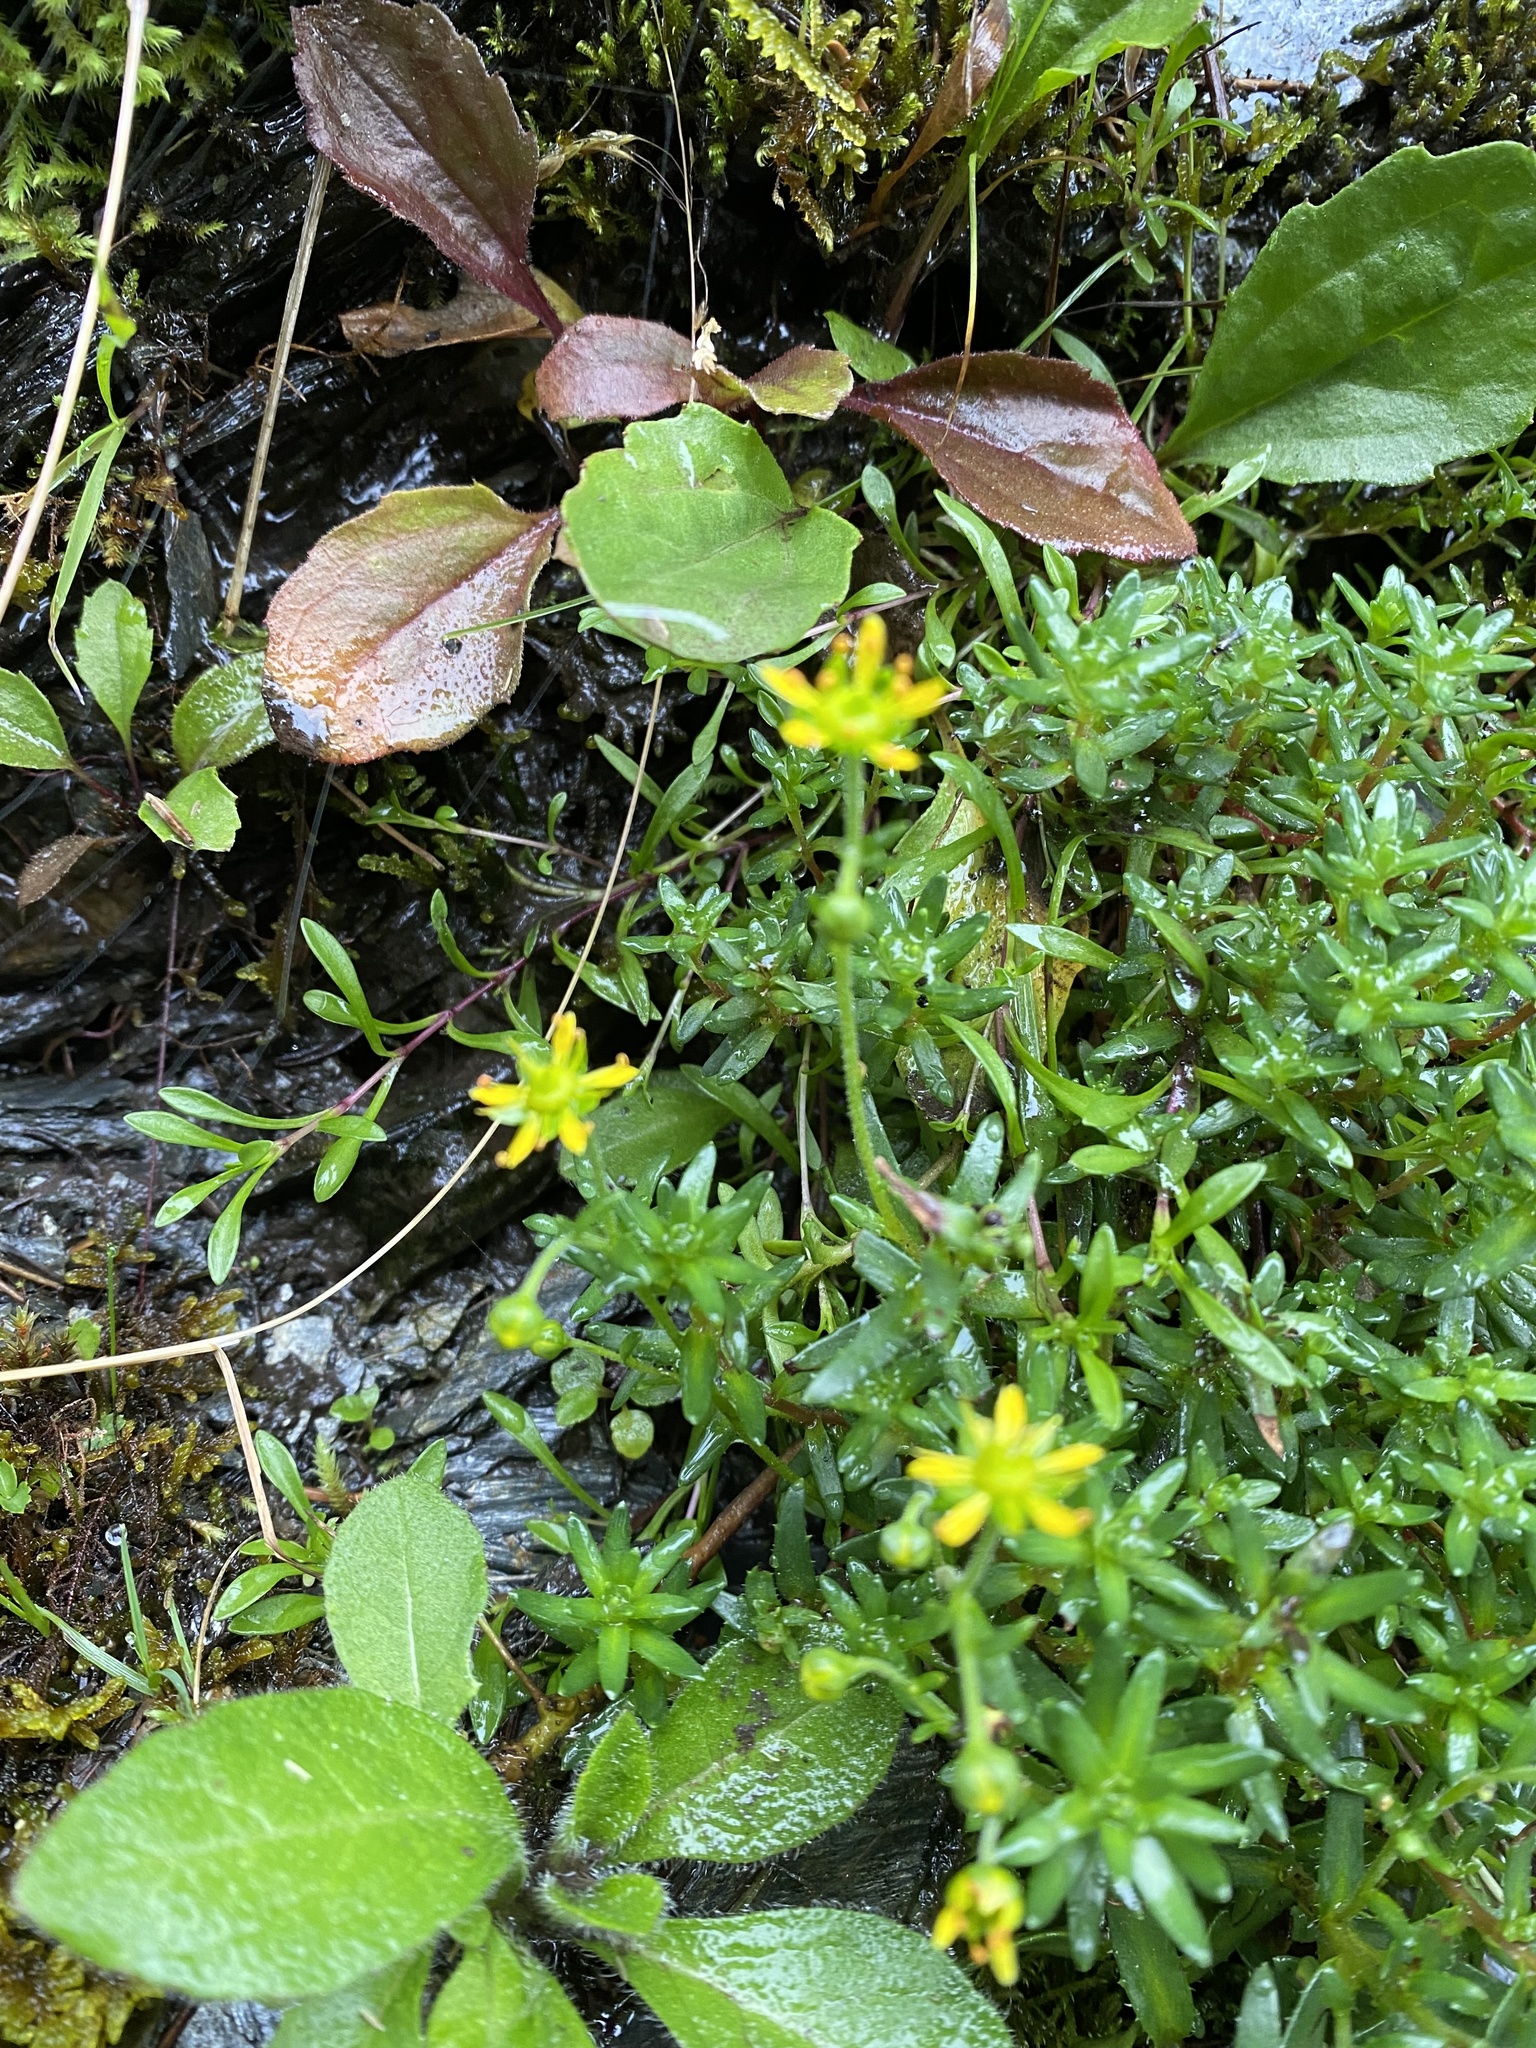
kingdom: Plantae
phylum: Tracheophyta
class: Magnoliopsida
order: Saxifragales
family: Saxifragaceae
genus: Saxifraga
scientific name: Saxifraga aizoides
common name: Yellow mountain saxifrage
